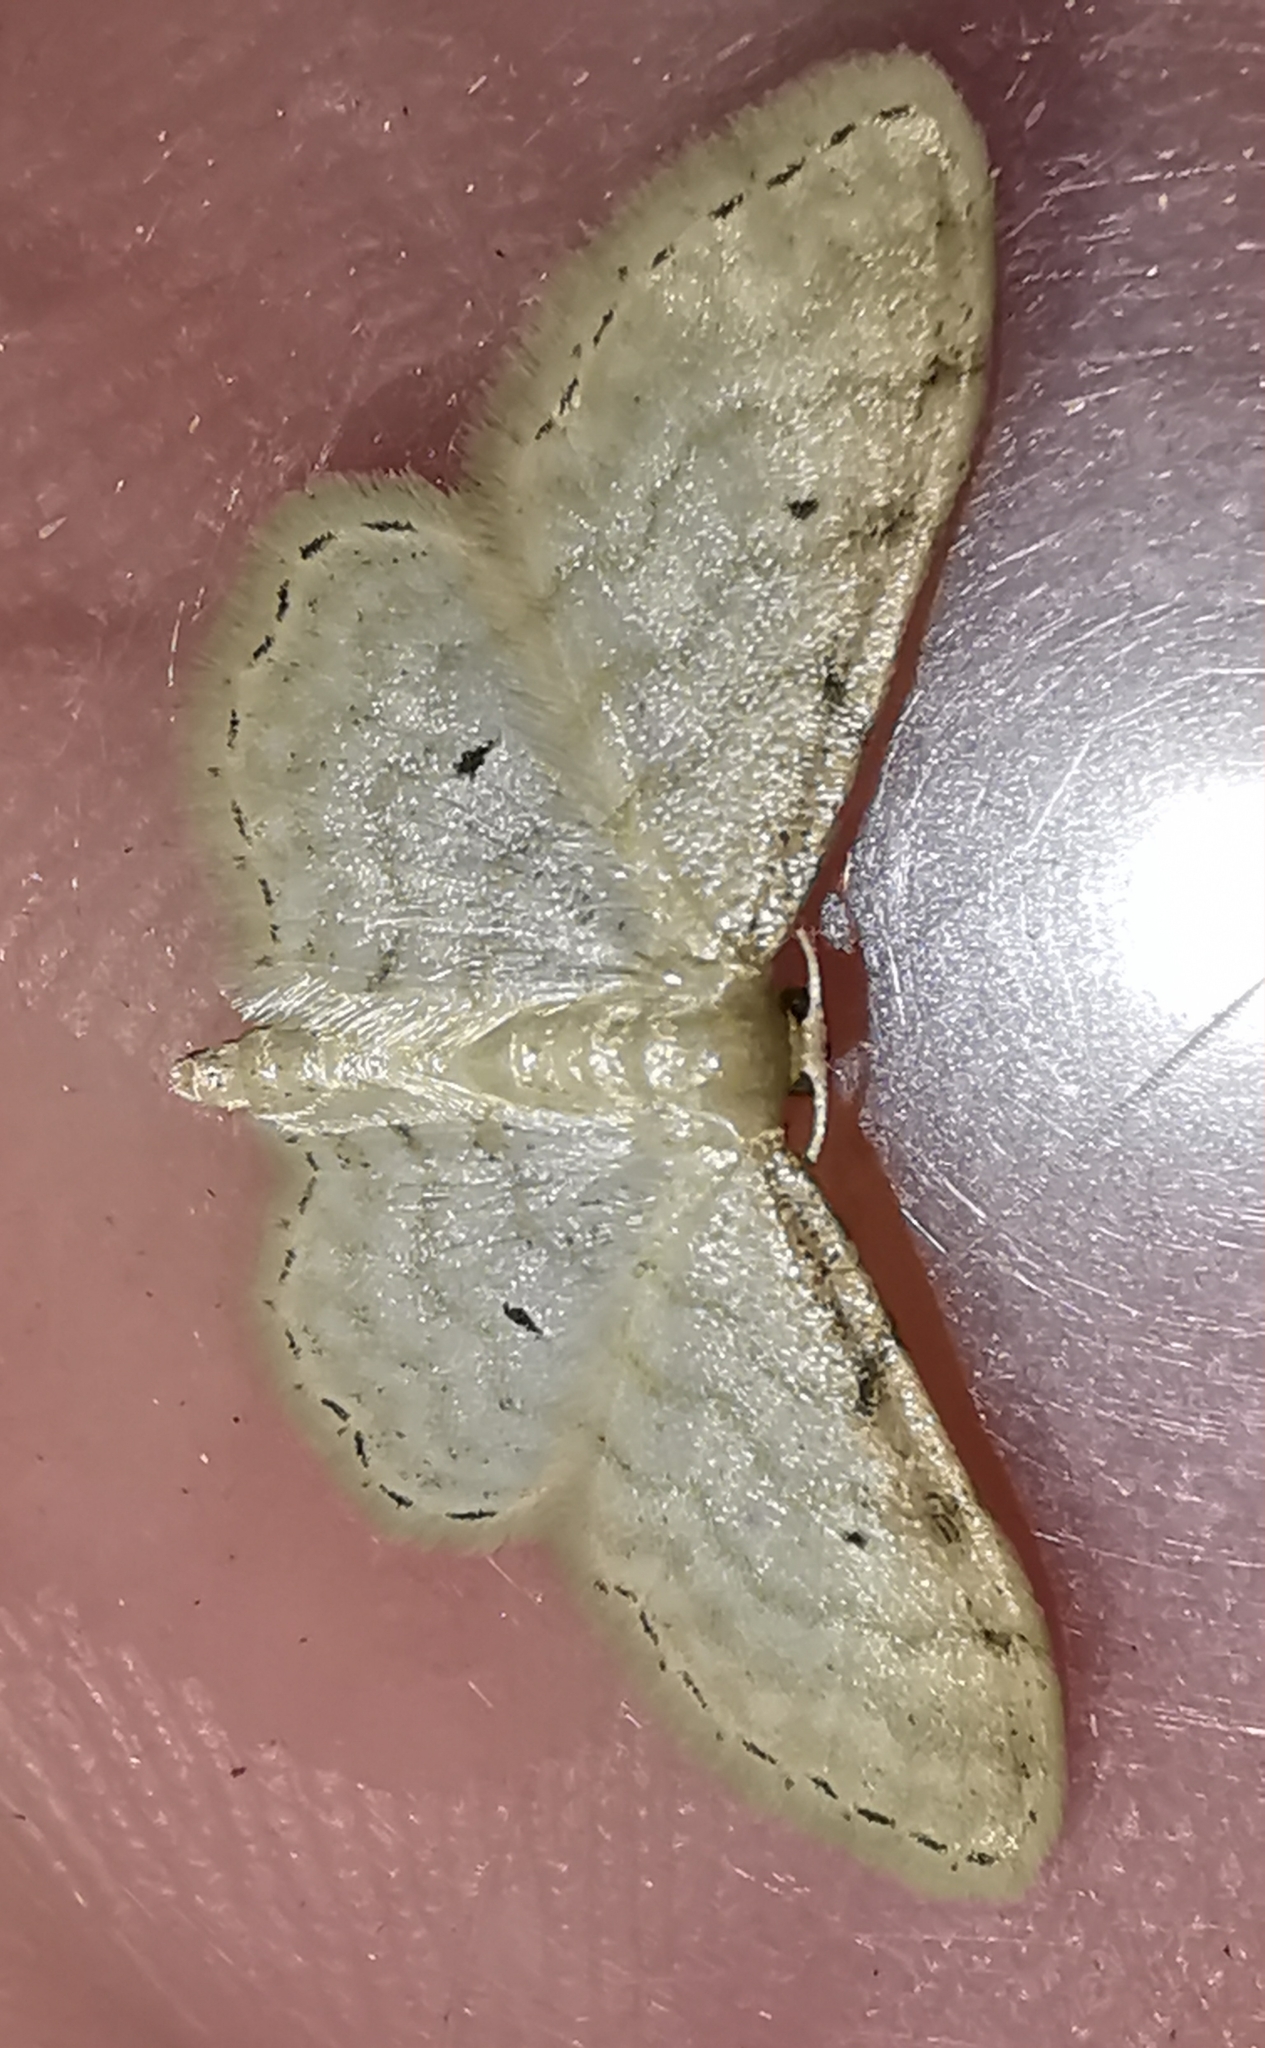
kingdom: Animalia
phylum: Arthropoda
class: Insecta
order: Lepidoptera
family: Geometridae
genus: Idaea
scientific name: Idaea fuscovenosa
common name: Dwarf cream wave
